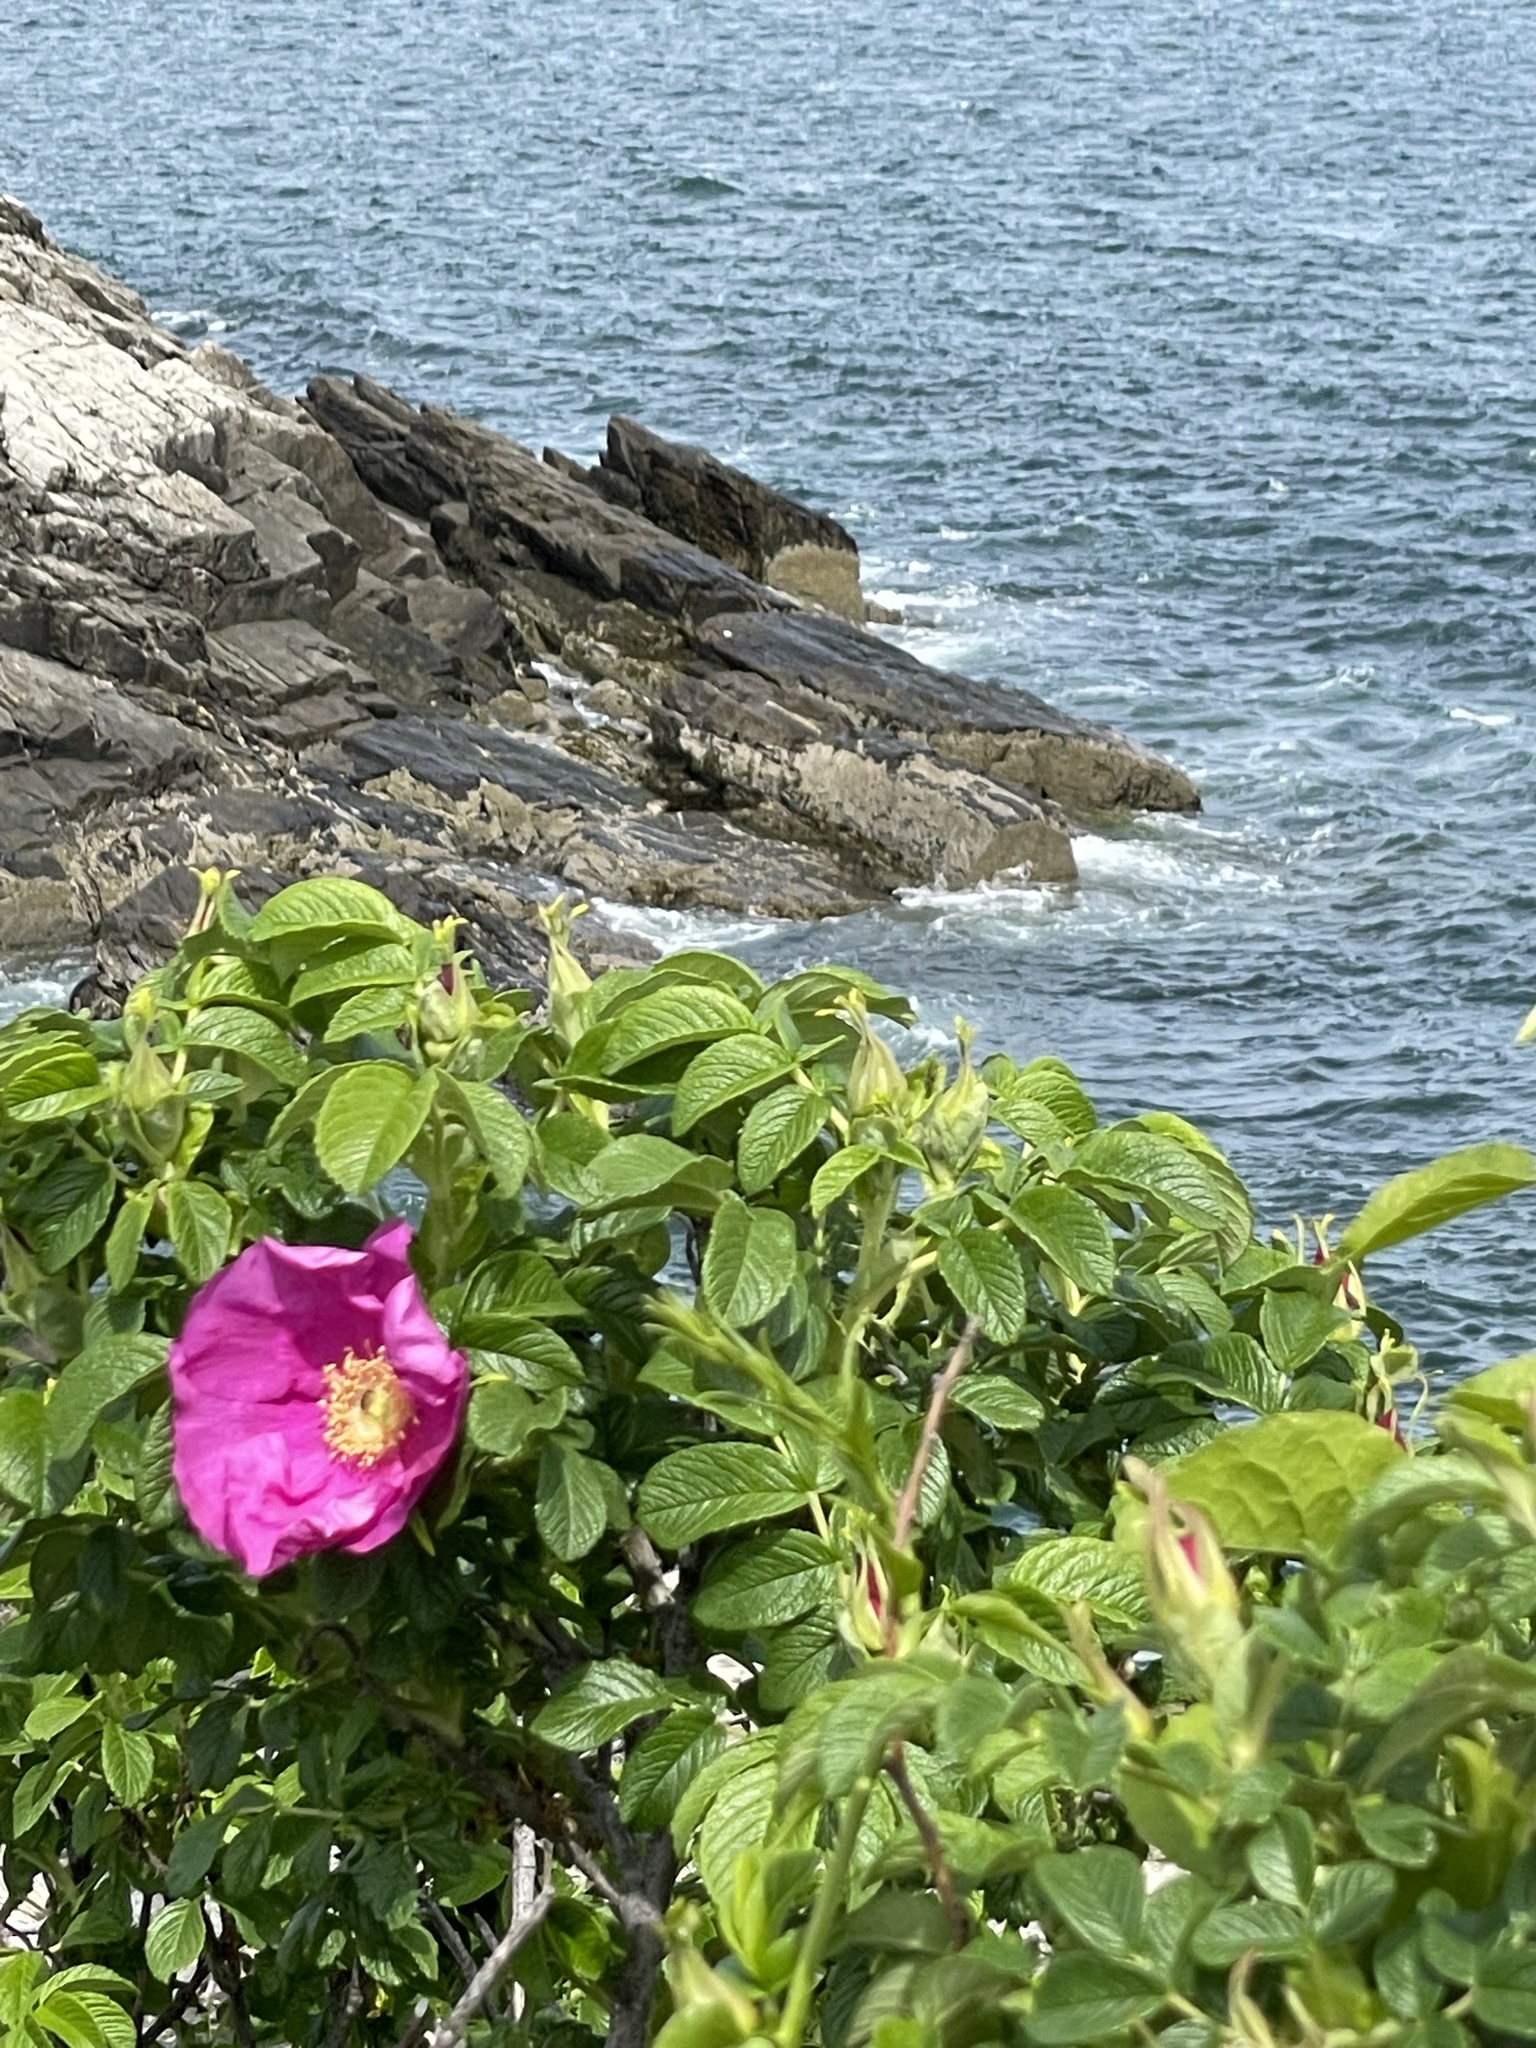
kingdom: Plantae
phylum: Tracheophyta
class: Magnoliopsida
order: Rosales
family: Rosaceae
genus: Rosa
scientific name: Rosa rugosa
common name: Japanese rose
